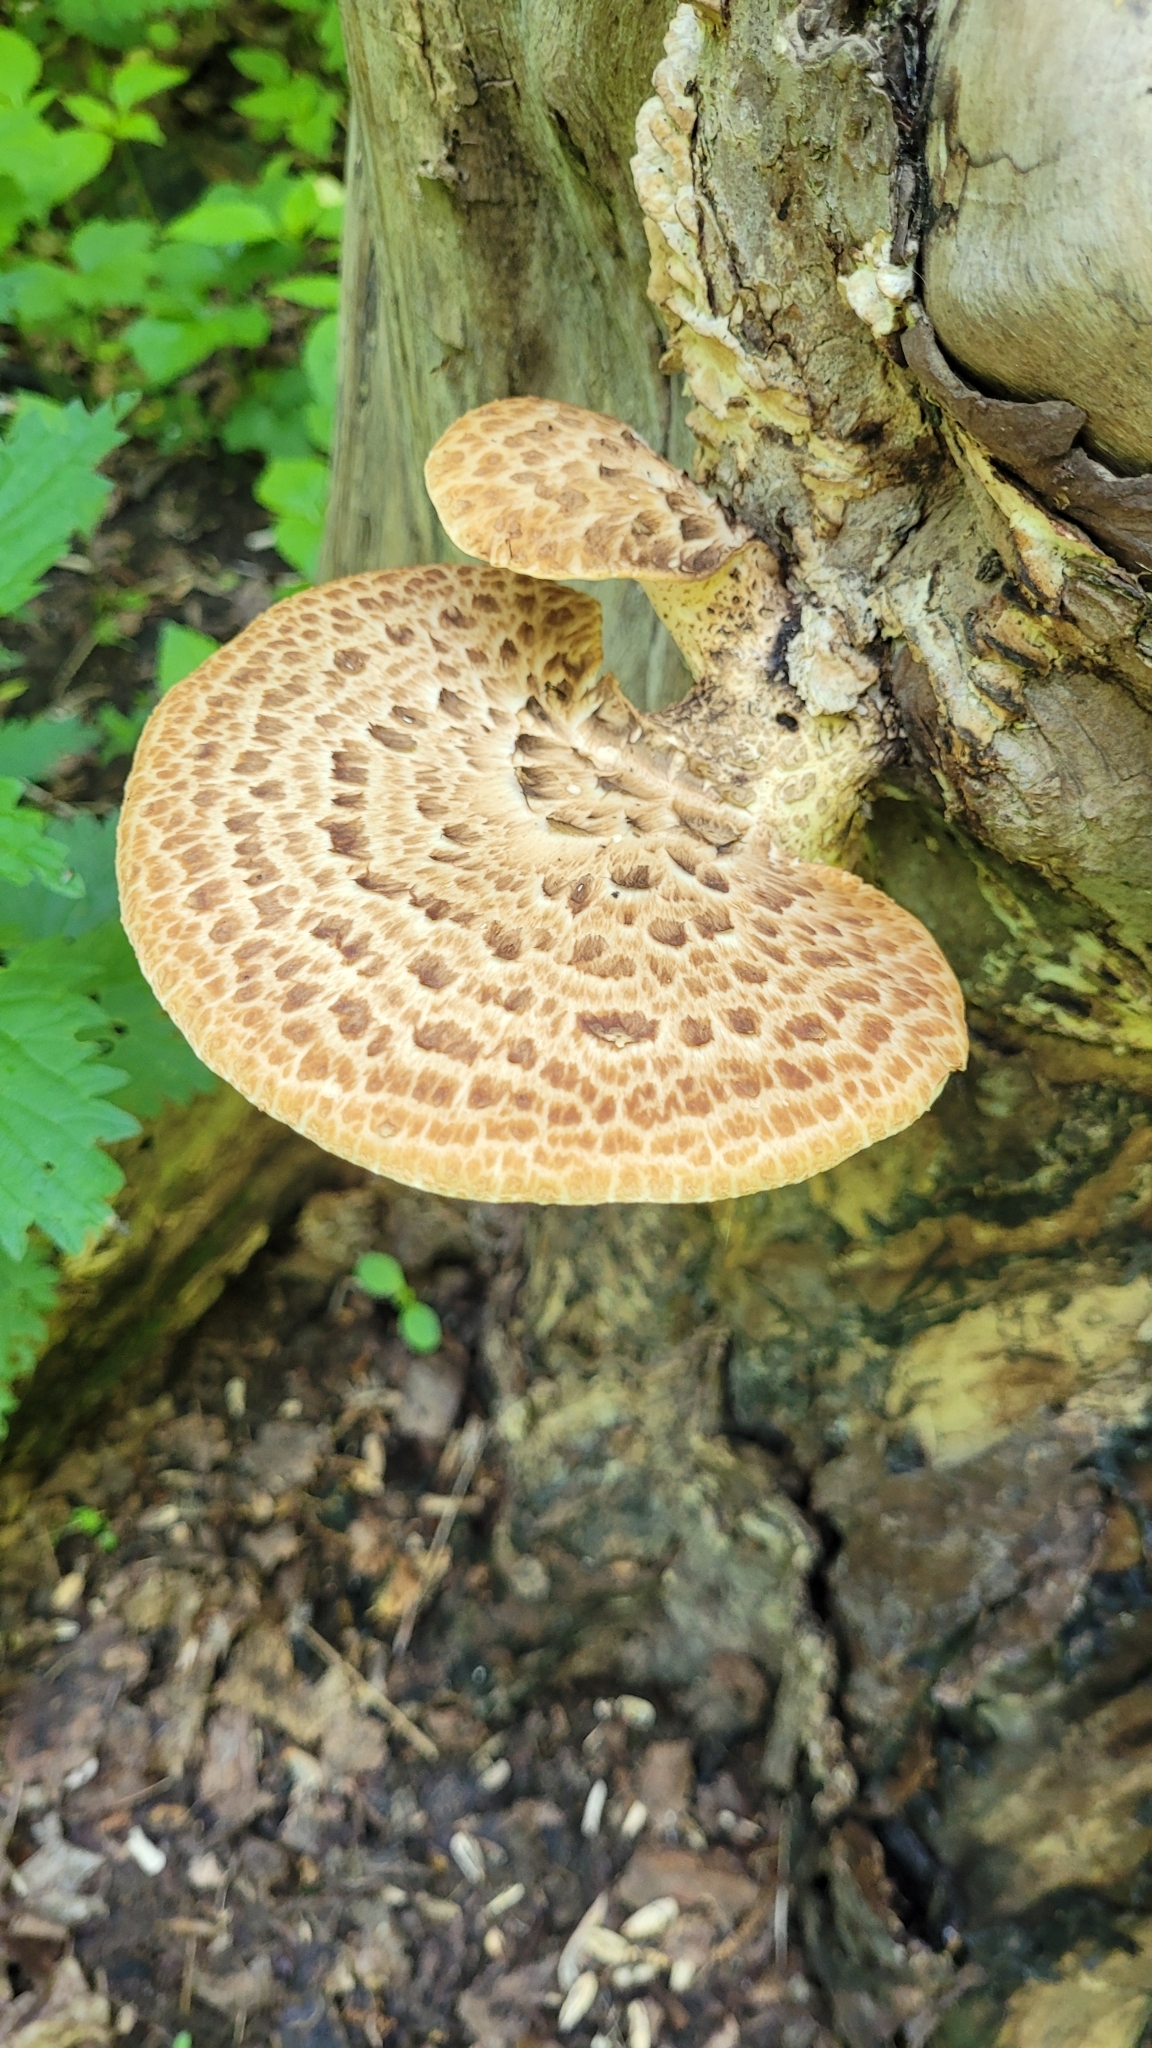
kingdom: Fungi
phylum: Basidiomycota
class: Agaricomycetes
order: Polyporales
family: Polyporaceae
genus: Cerioporus
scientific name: Cerioporus squamosus
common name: Dryad's saddle
